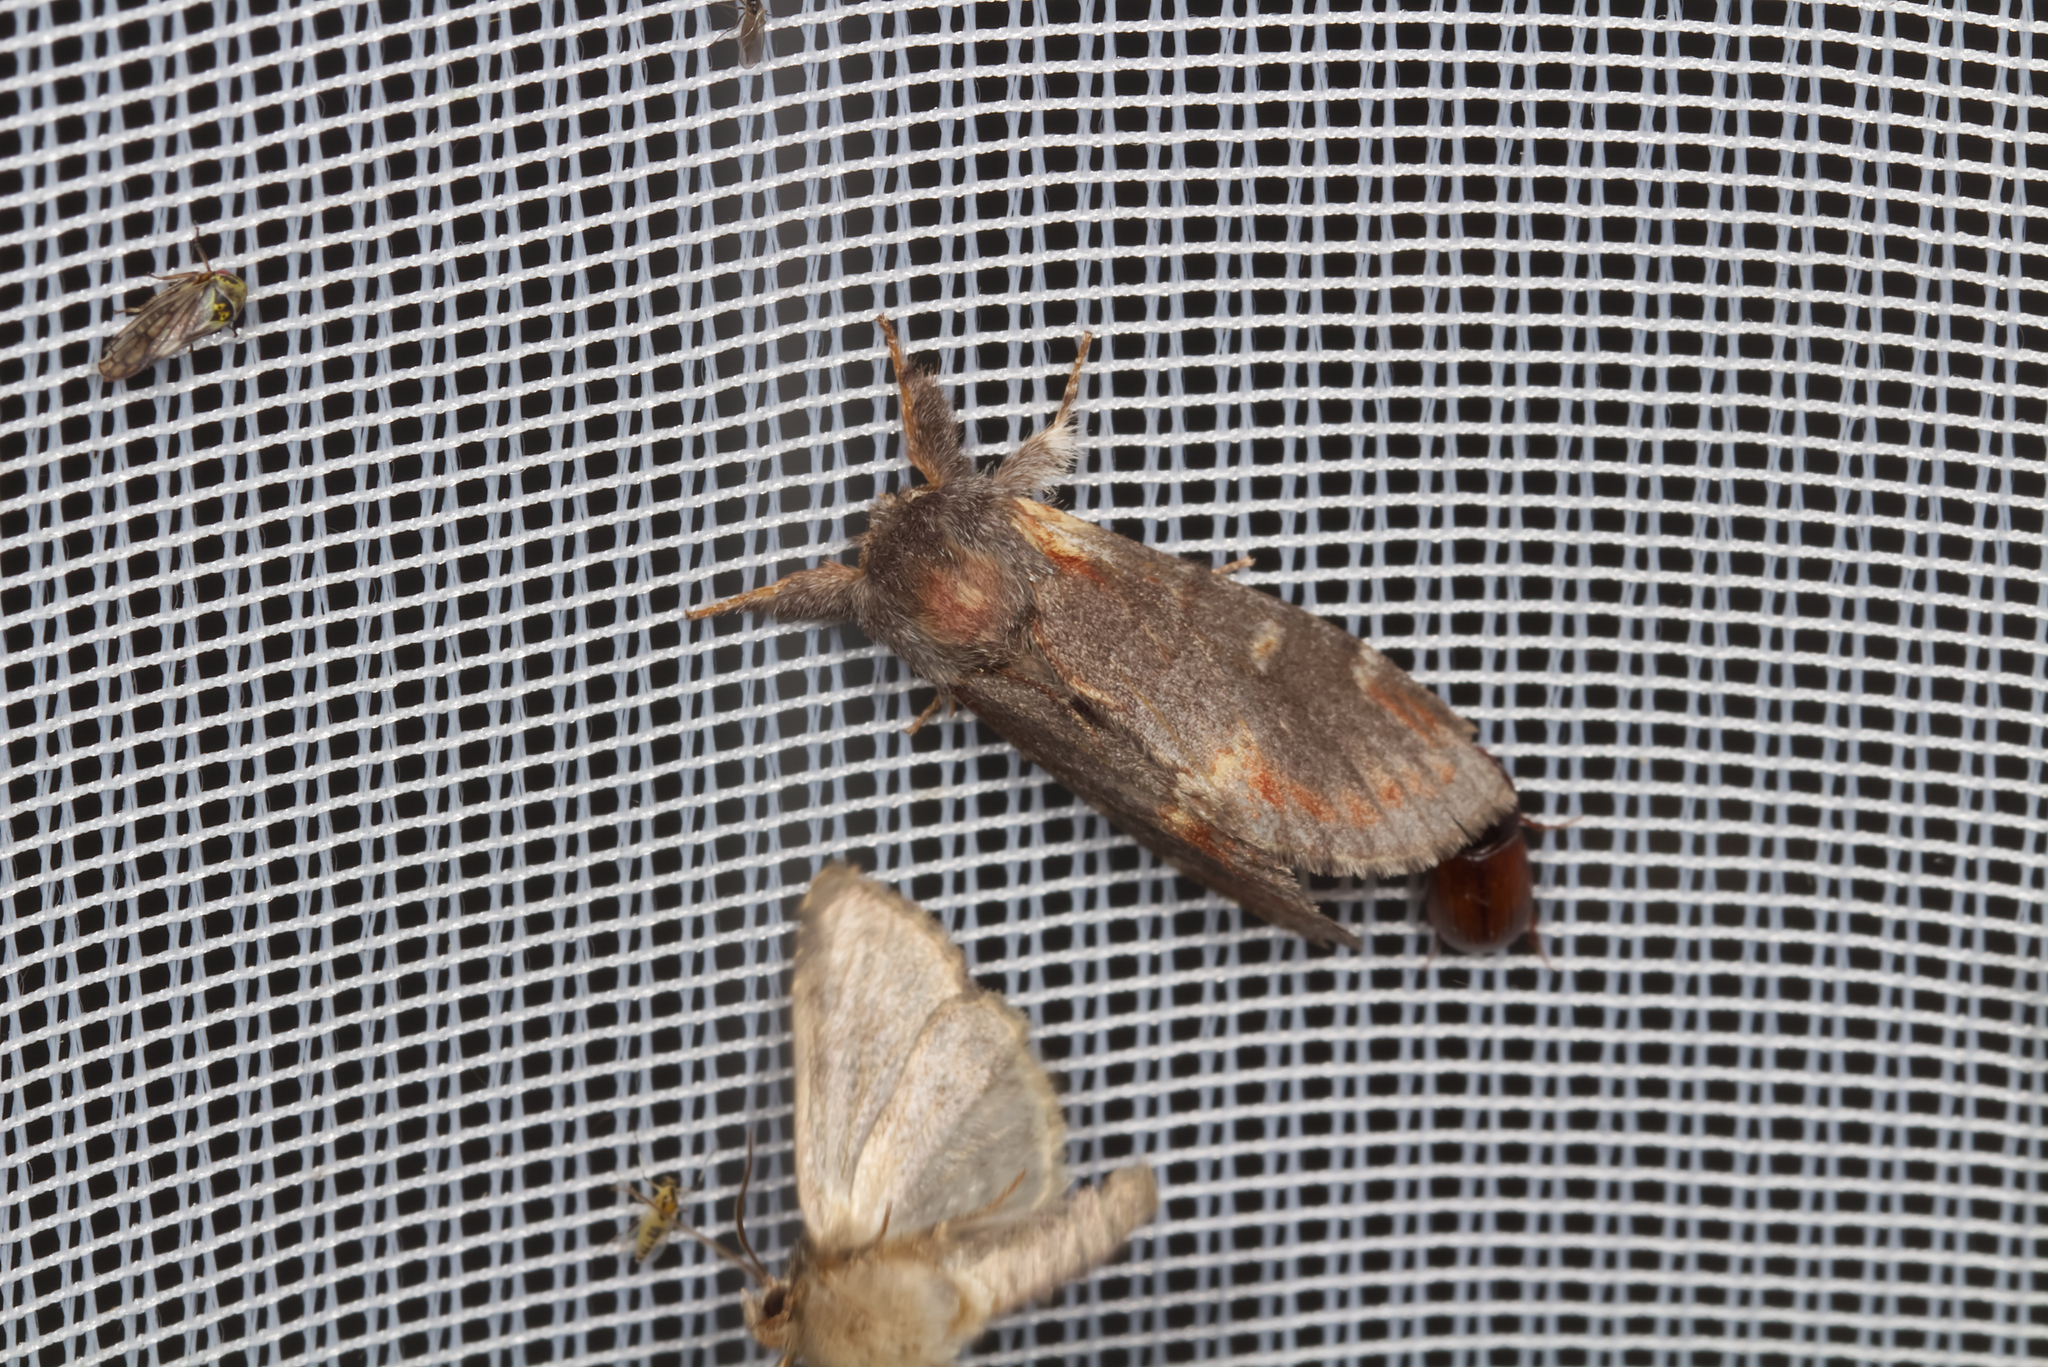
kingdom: Animalia
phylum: Arthropoda
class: Insecta
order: Lepidoptera
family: Notodontidae
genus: Notodonta
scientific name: Notodonta dromedarius
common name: Iron prominent
